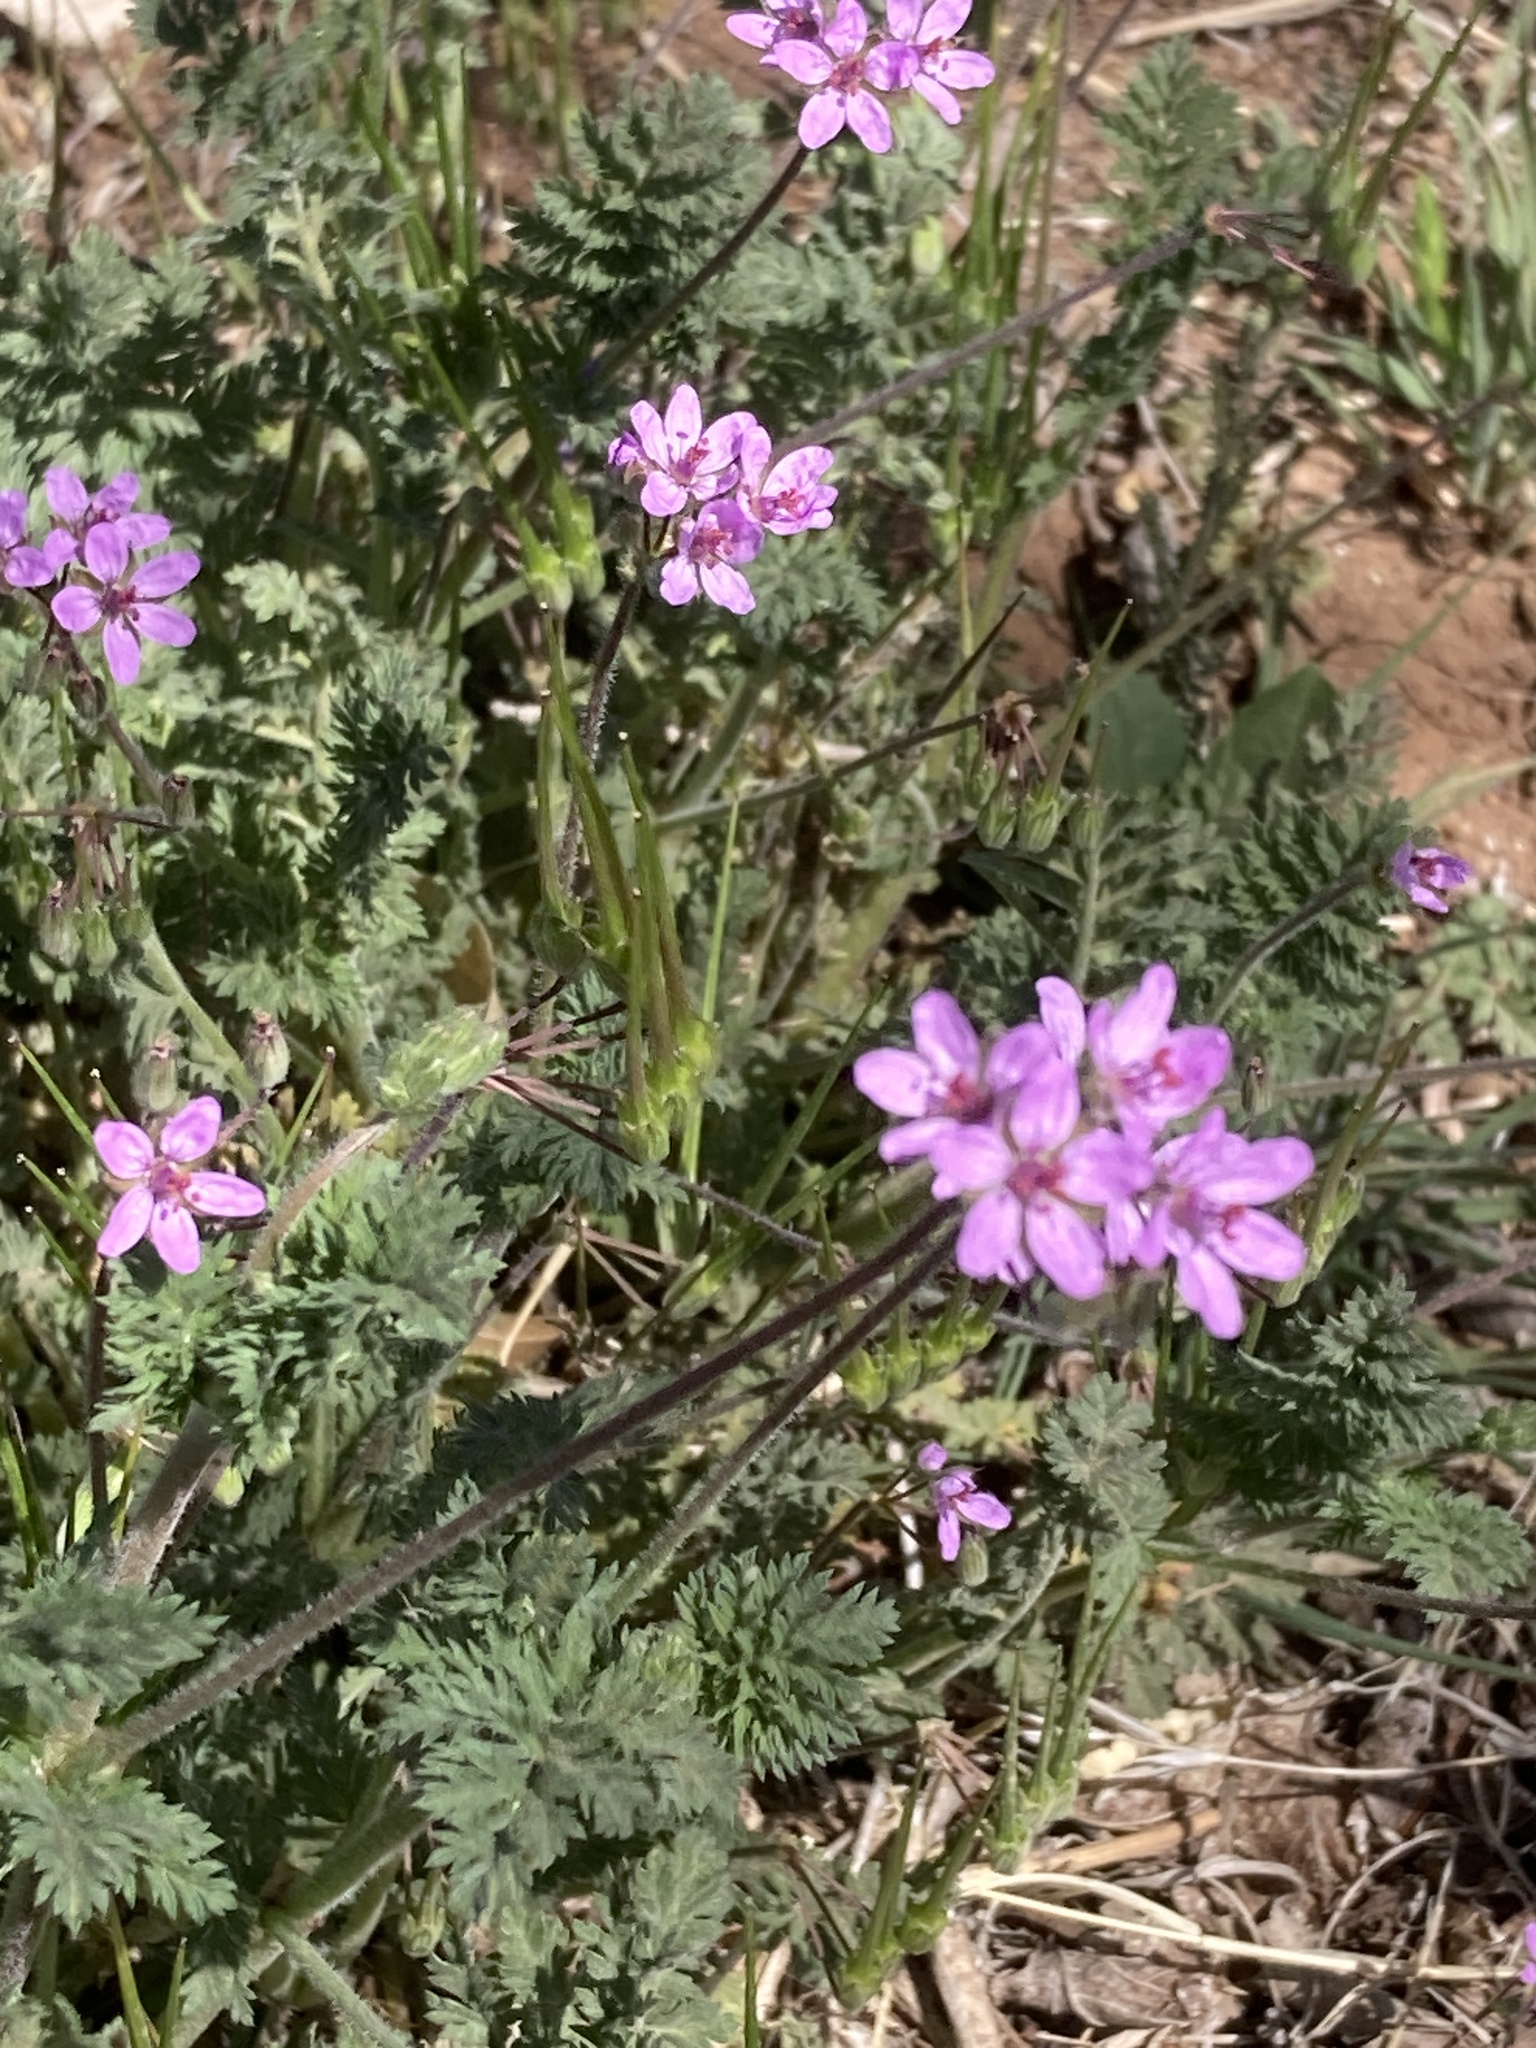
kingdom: Plantae
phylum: Tracheophyta
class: Magnoliopsida
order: Geraniales
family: Geraniaceae
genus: Erodium
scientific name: Erodium cicutarium
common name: Common stork's-bill
